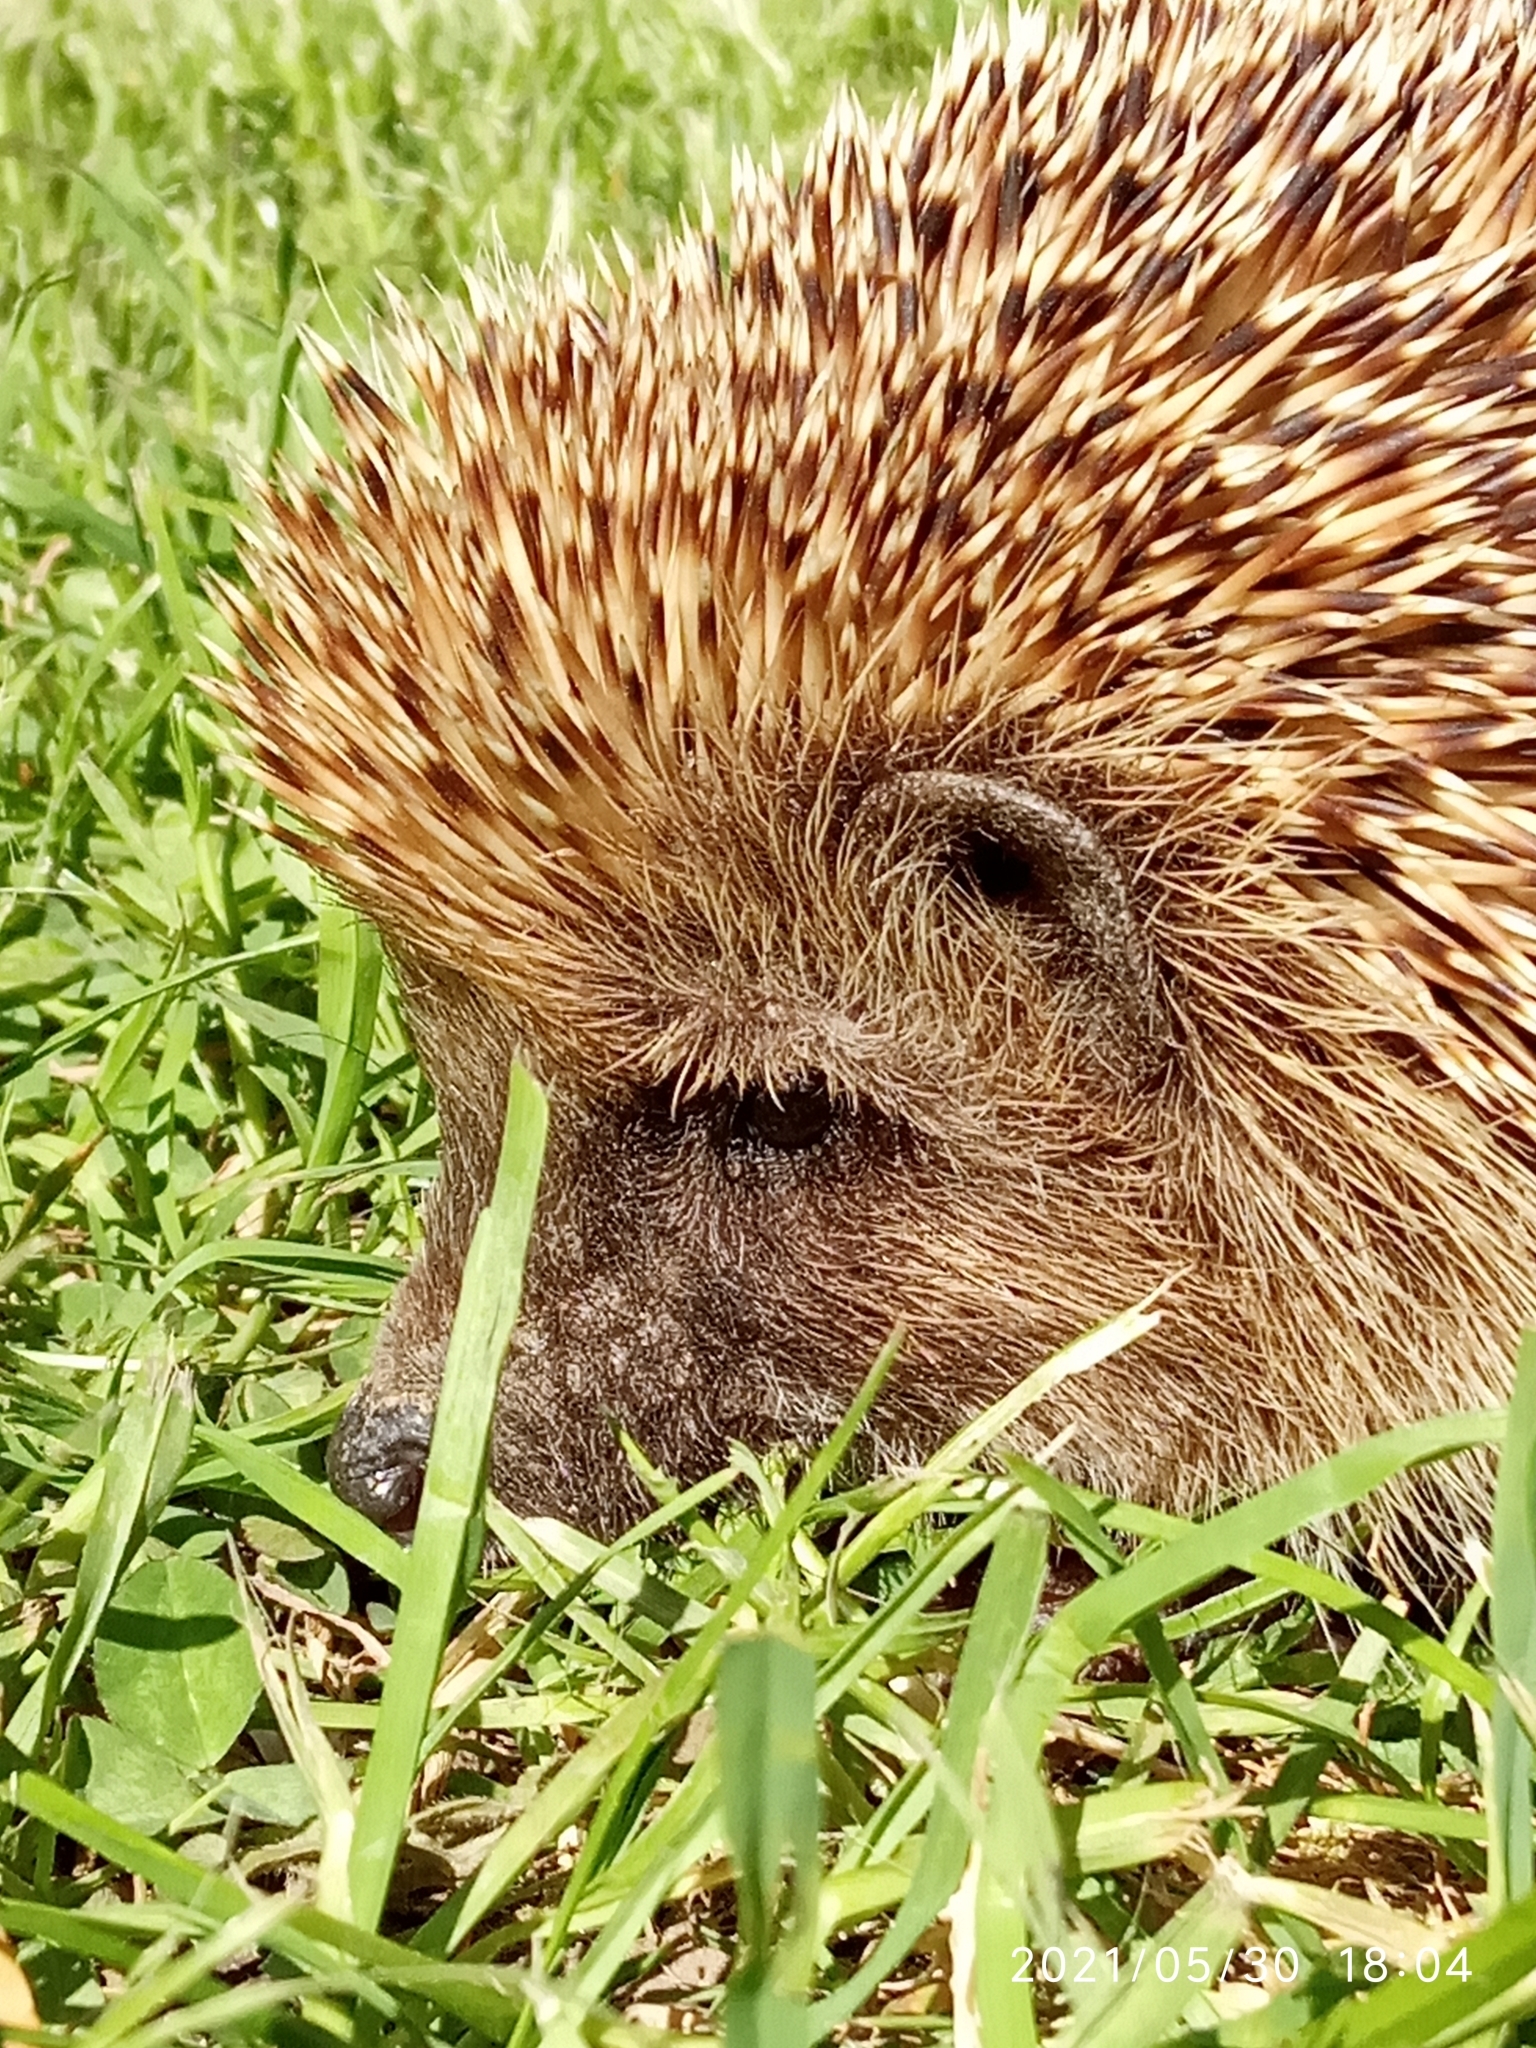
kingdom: Animalia
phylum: Chordata
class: Mammalia
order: Erinaceomorpha
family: Erinaceidae
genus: Erinaceus
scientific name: Erinaceus europaeus
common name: West european hedgehog
